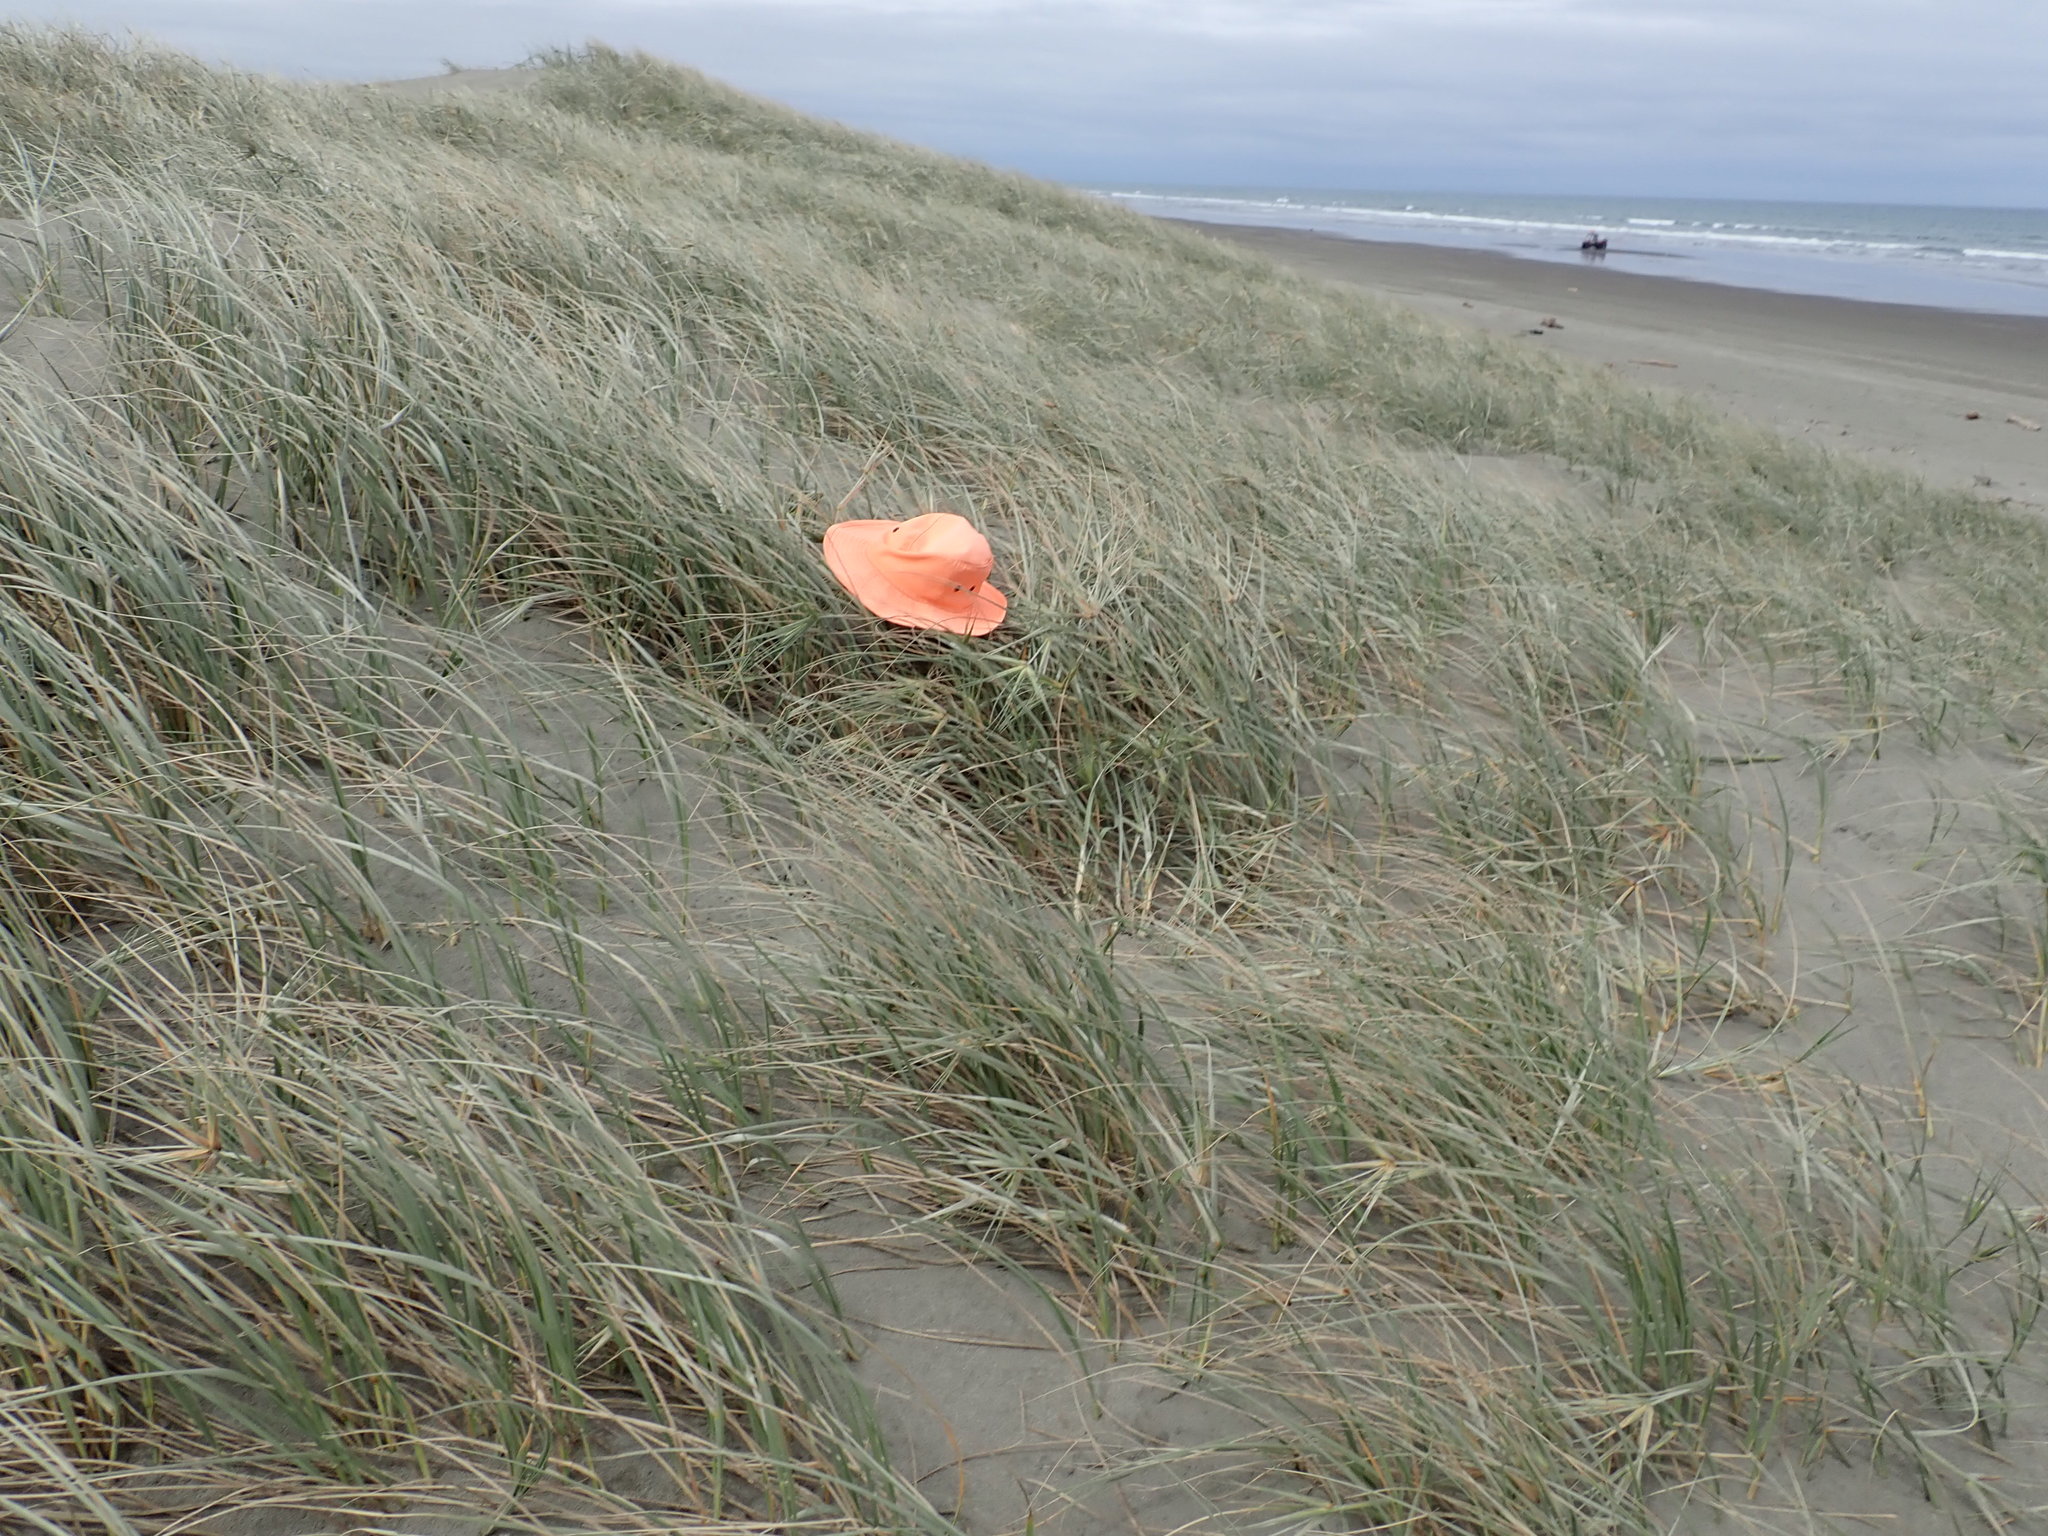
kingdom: Animalia
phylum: Arthropoda
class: Arachnida
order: Araneae
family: Theridiidae
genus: Latrodectus
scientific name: Latrodectus katipo
